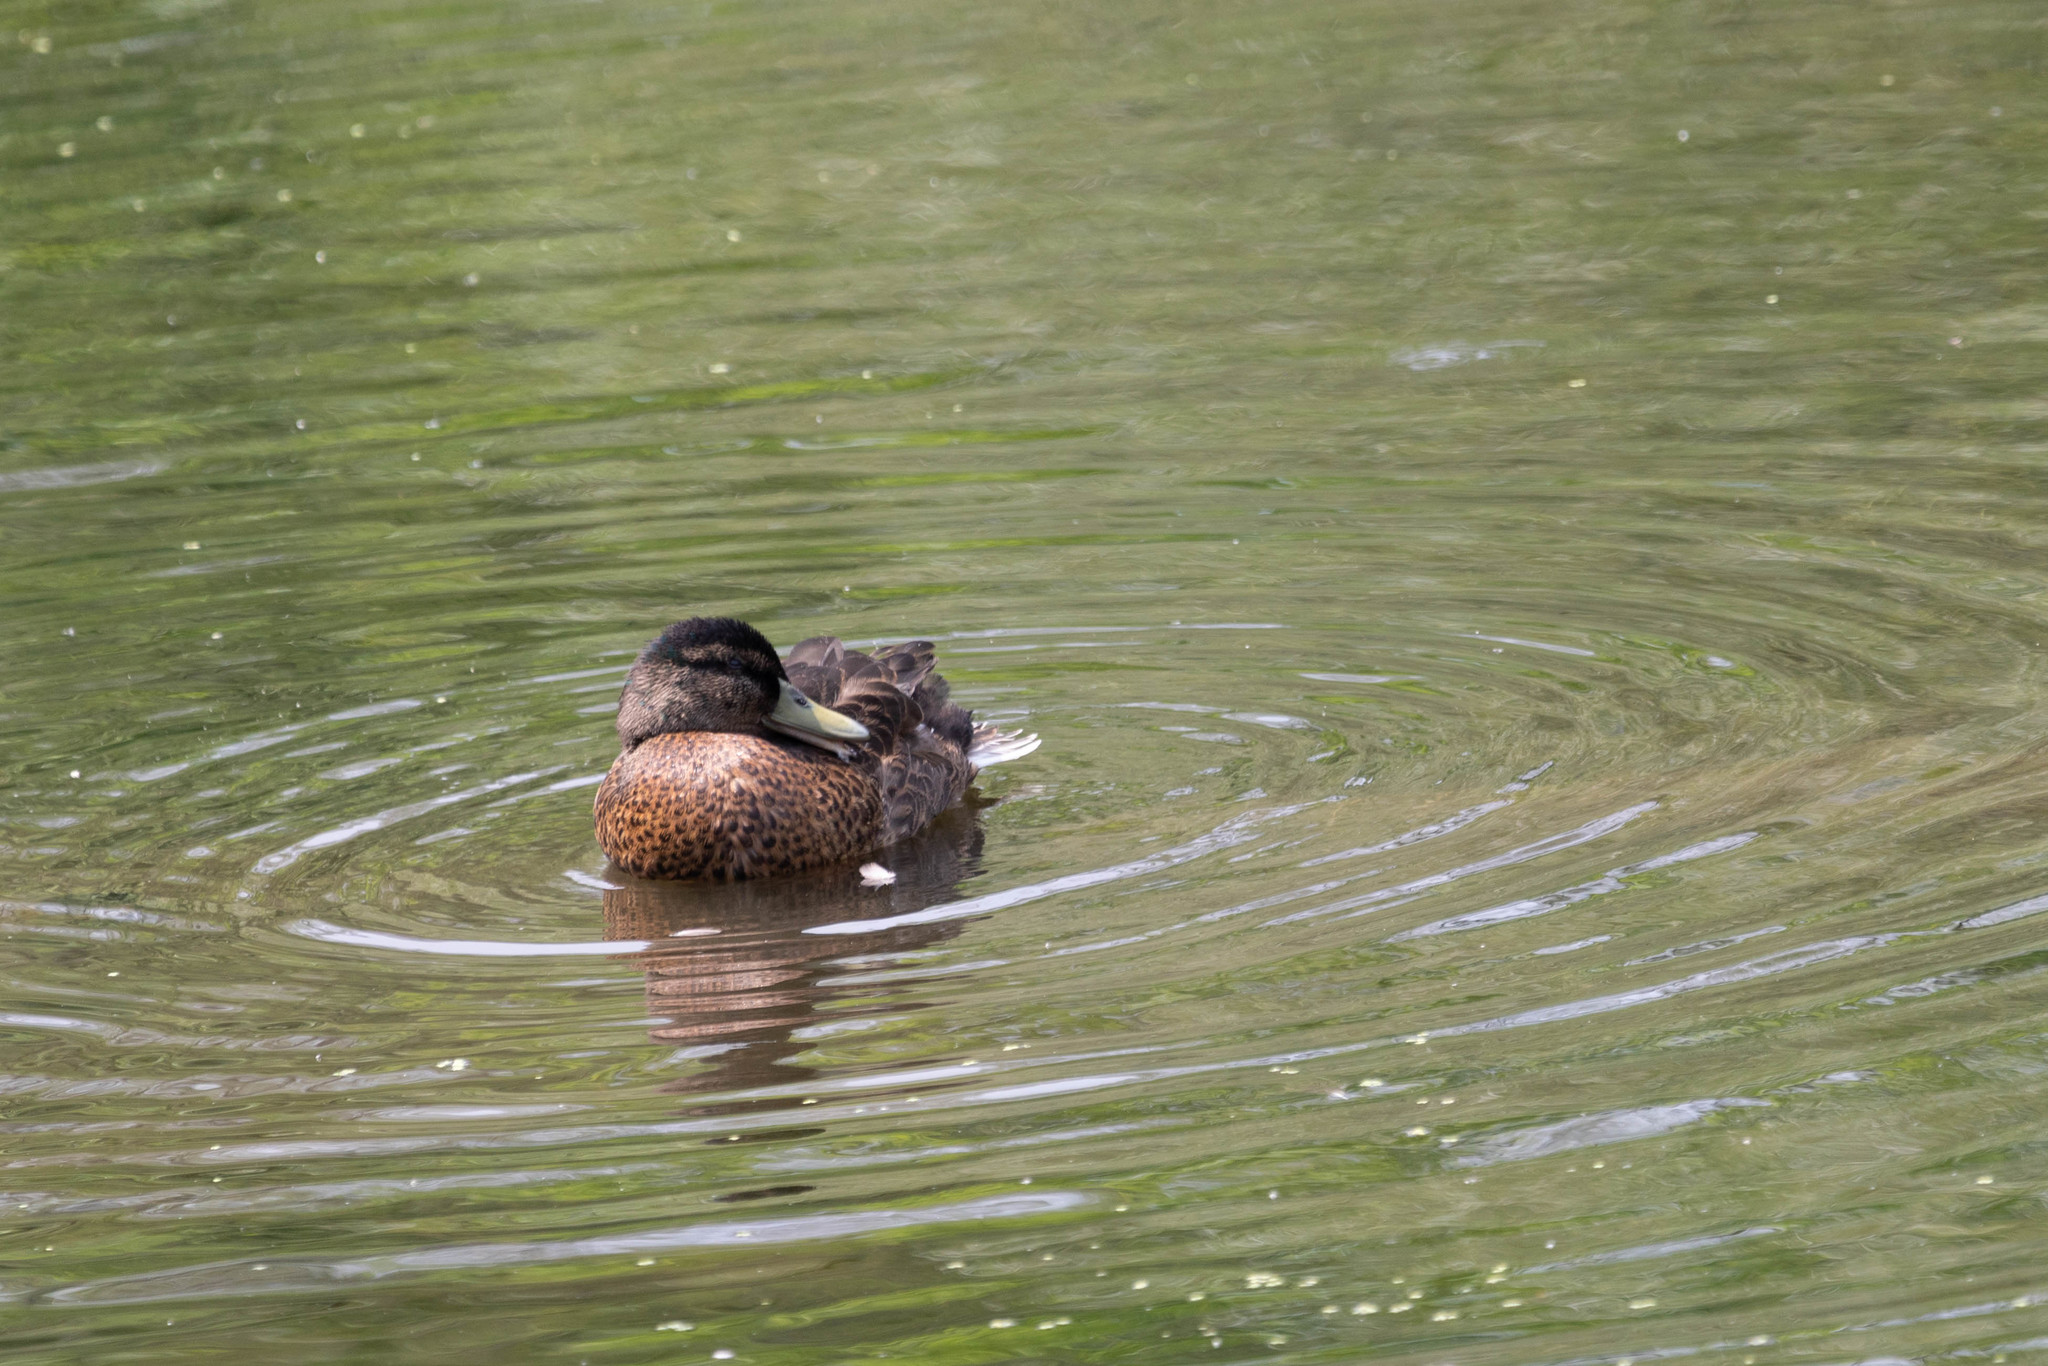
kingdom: Animalia
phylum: Chordata
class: Aves
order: Anseriformes
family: Anatidae
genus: Anas
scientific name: Anas platyrhynchos
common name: Mallard
